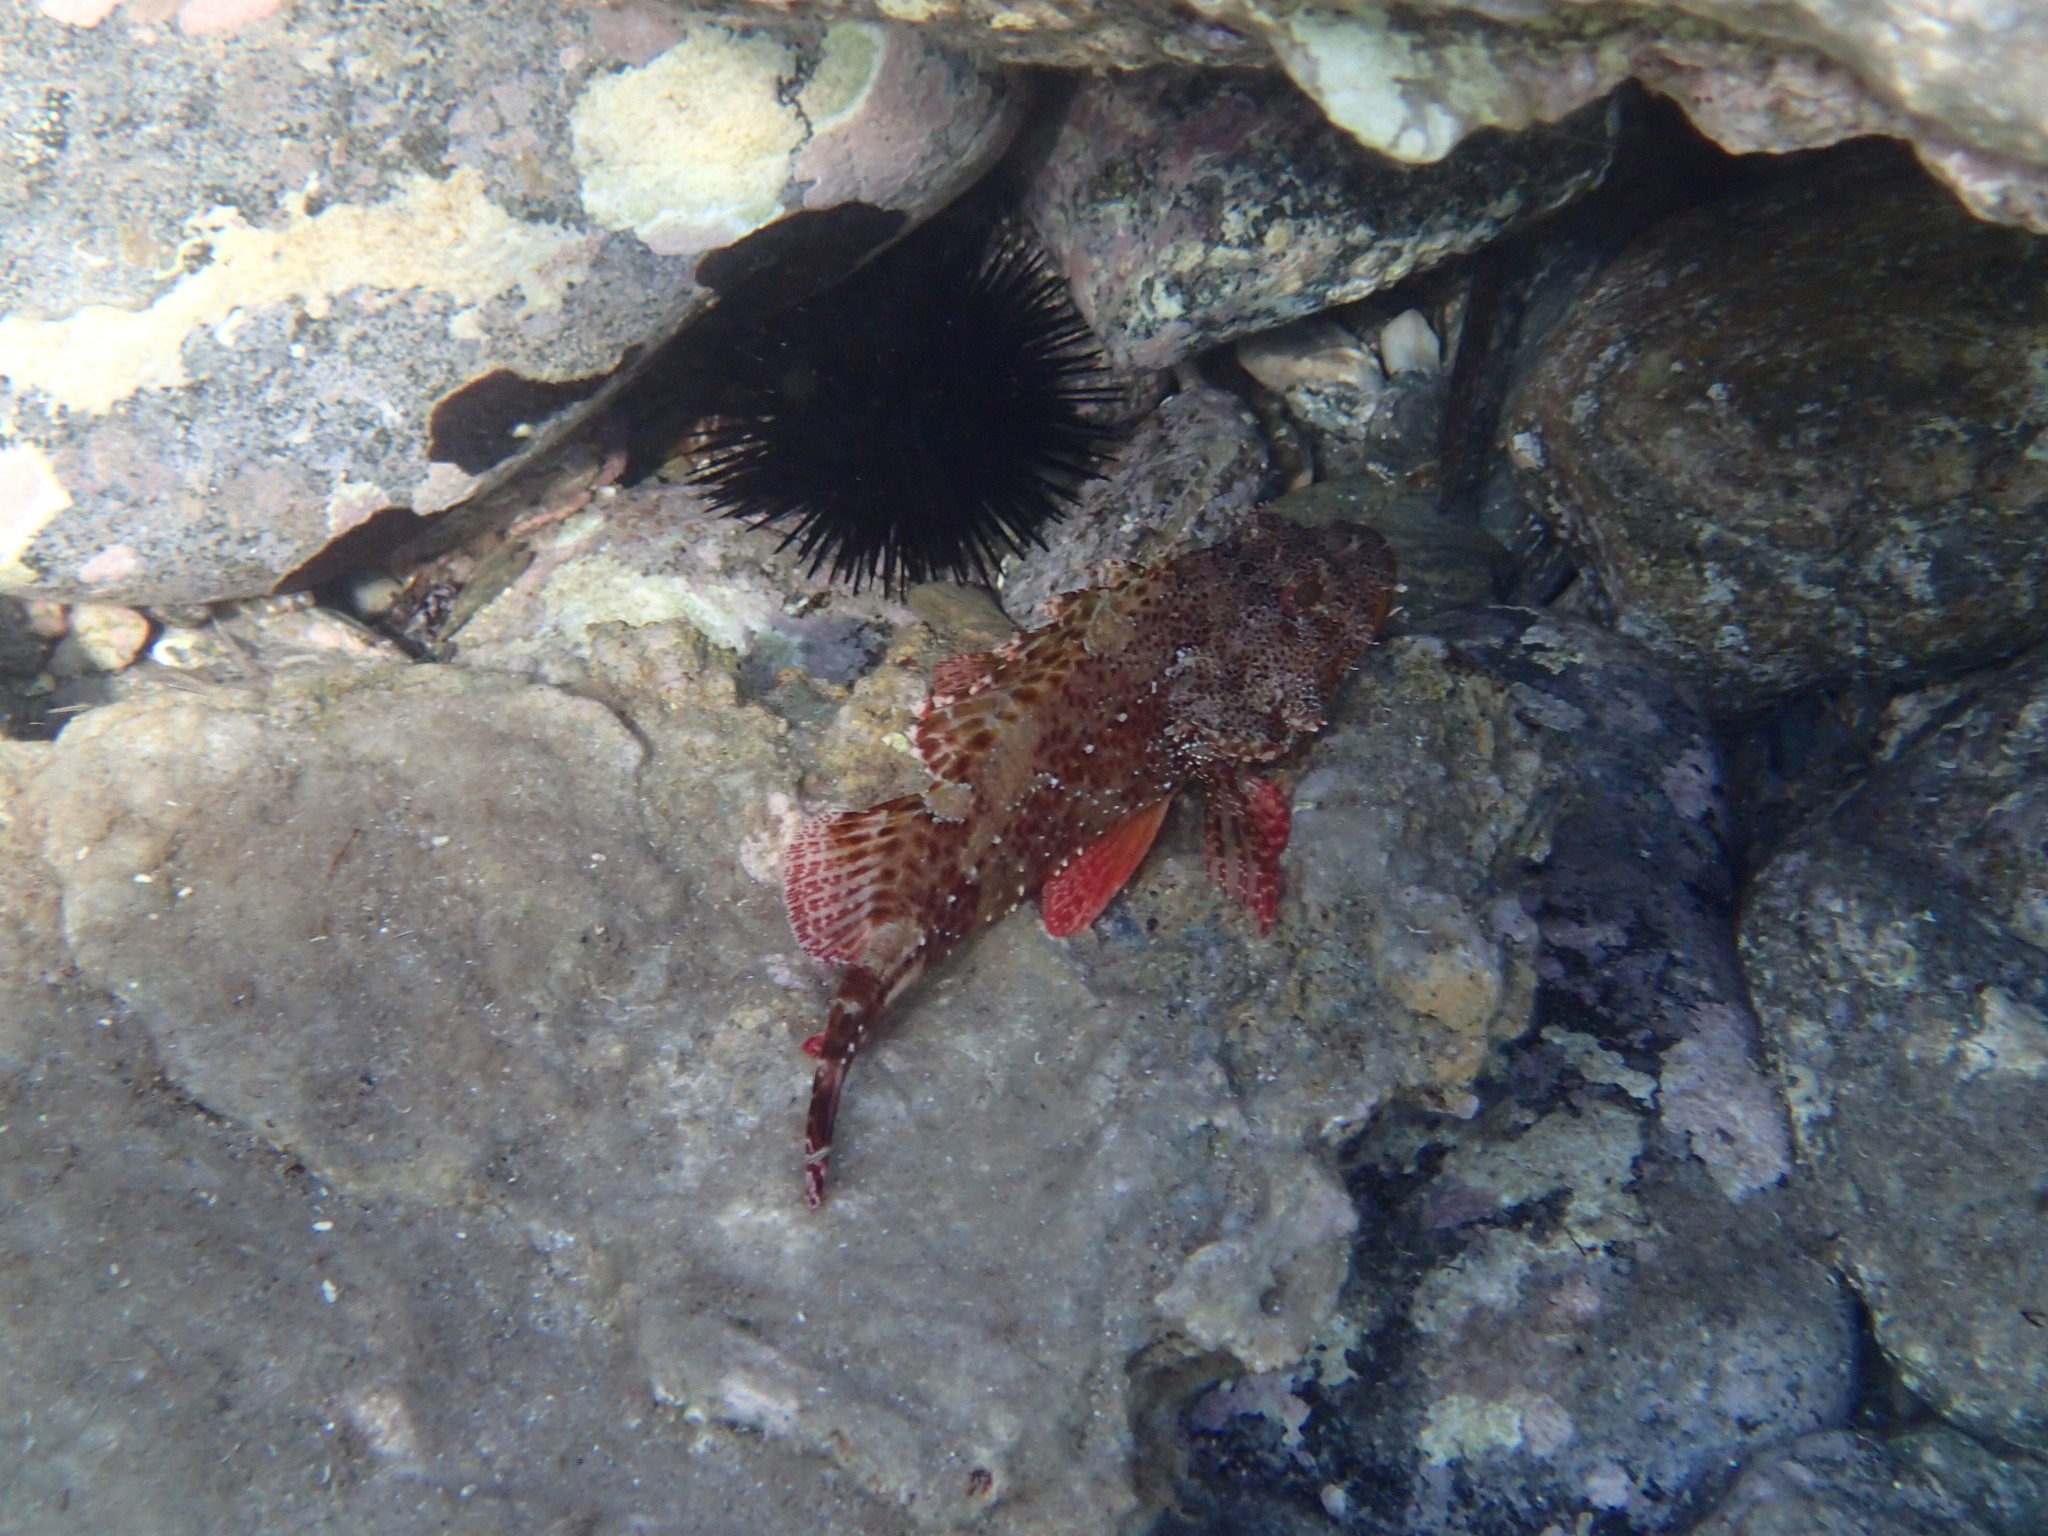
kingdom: Animalia
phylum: Chordata
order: Scorpaeniformes
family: Scorpaenidae
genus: Scorpaena
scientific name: Scorpaena maderensis
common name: Madeira rockfish
